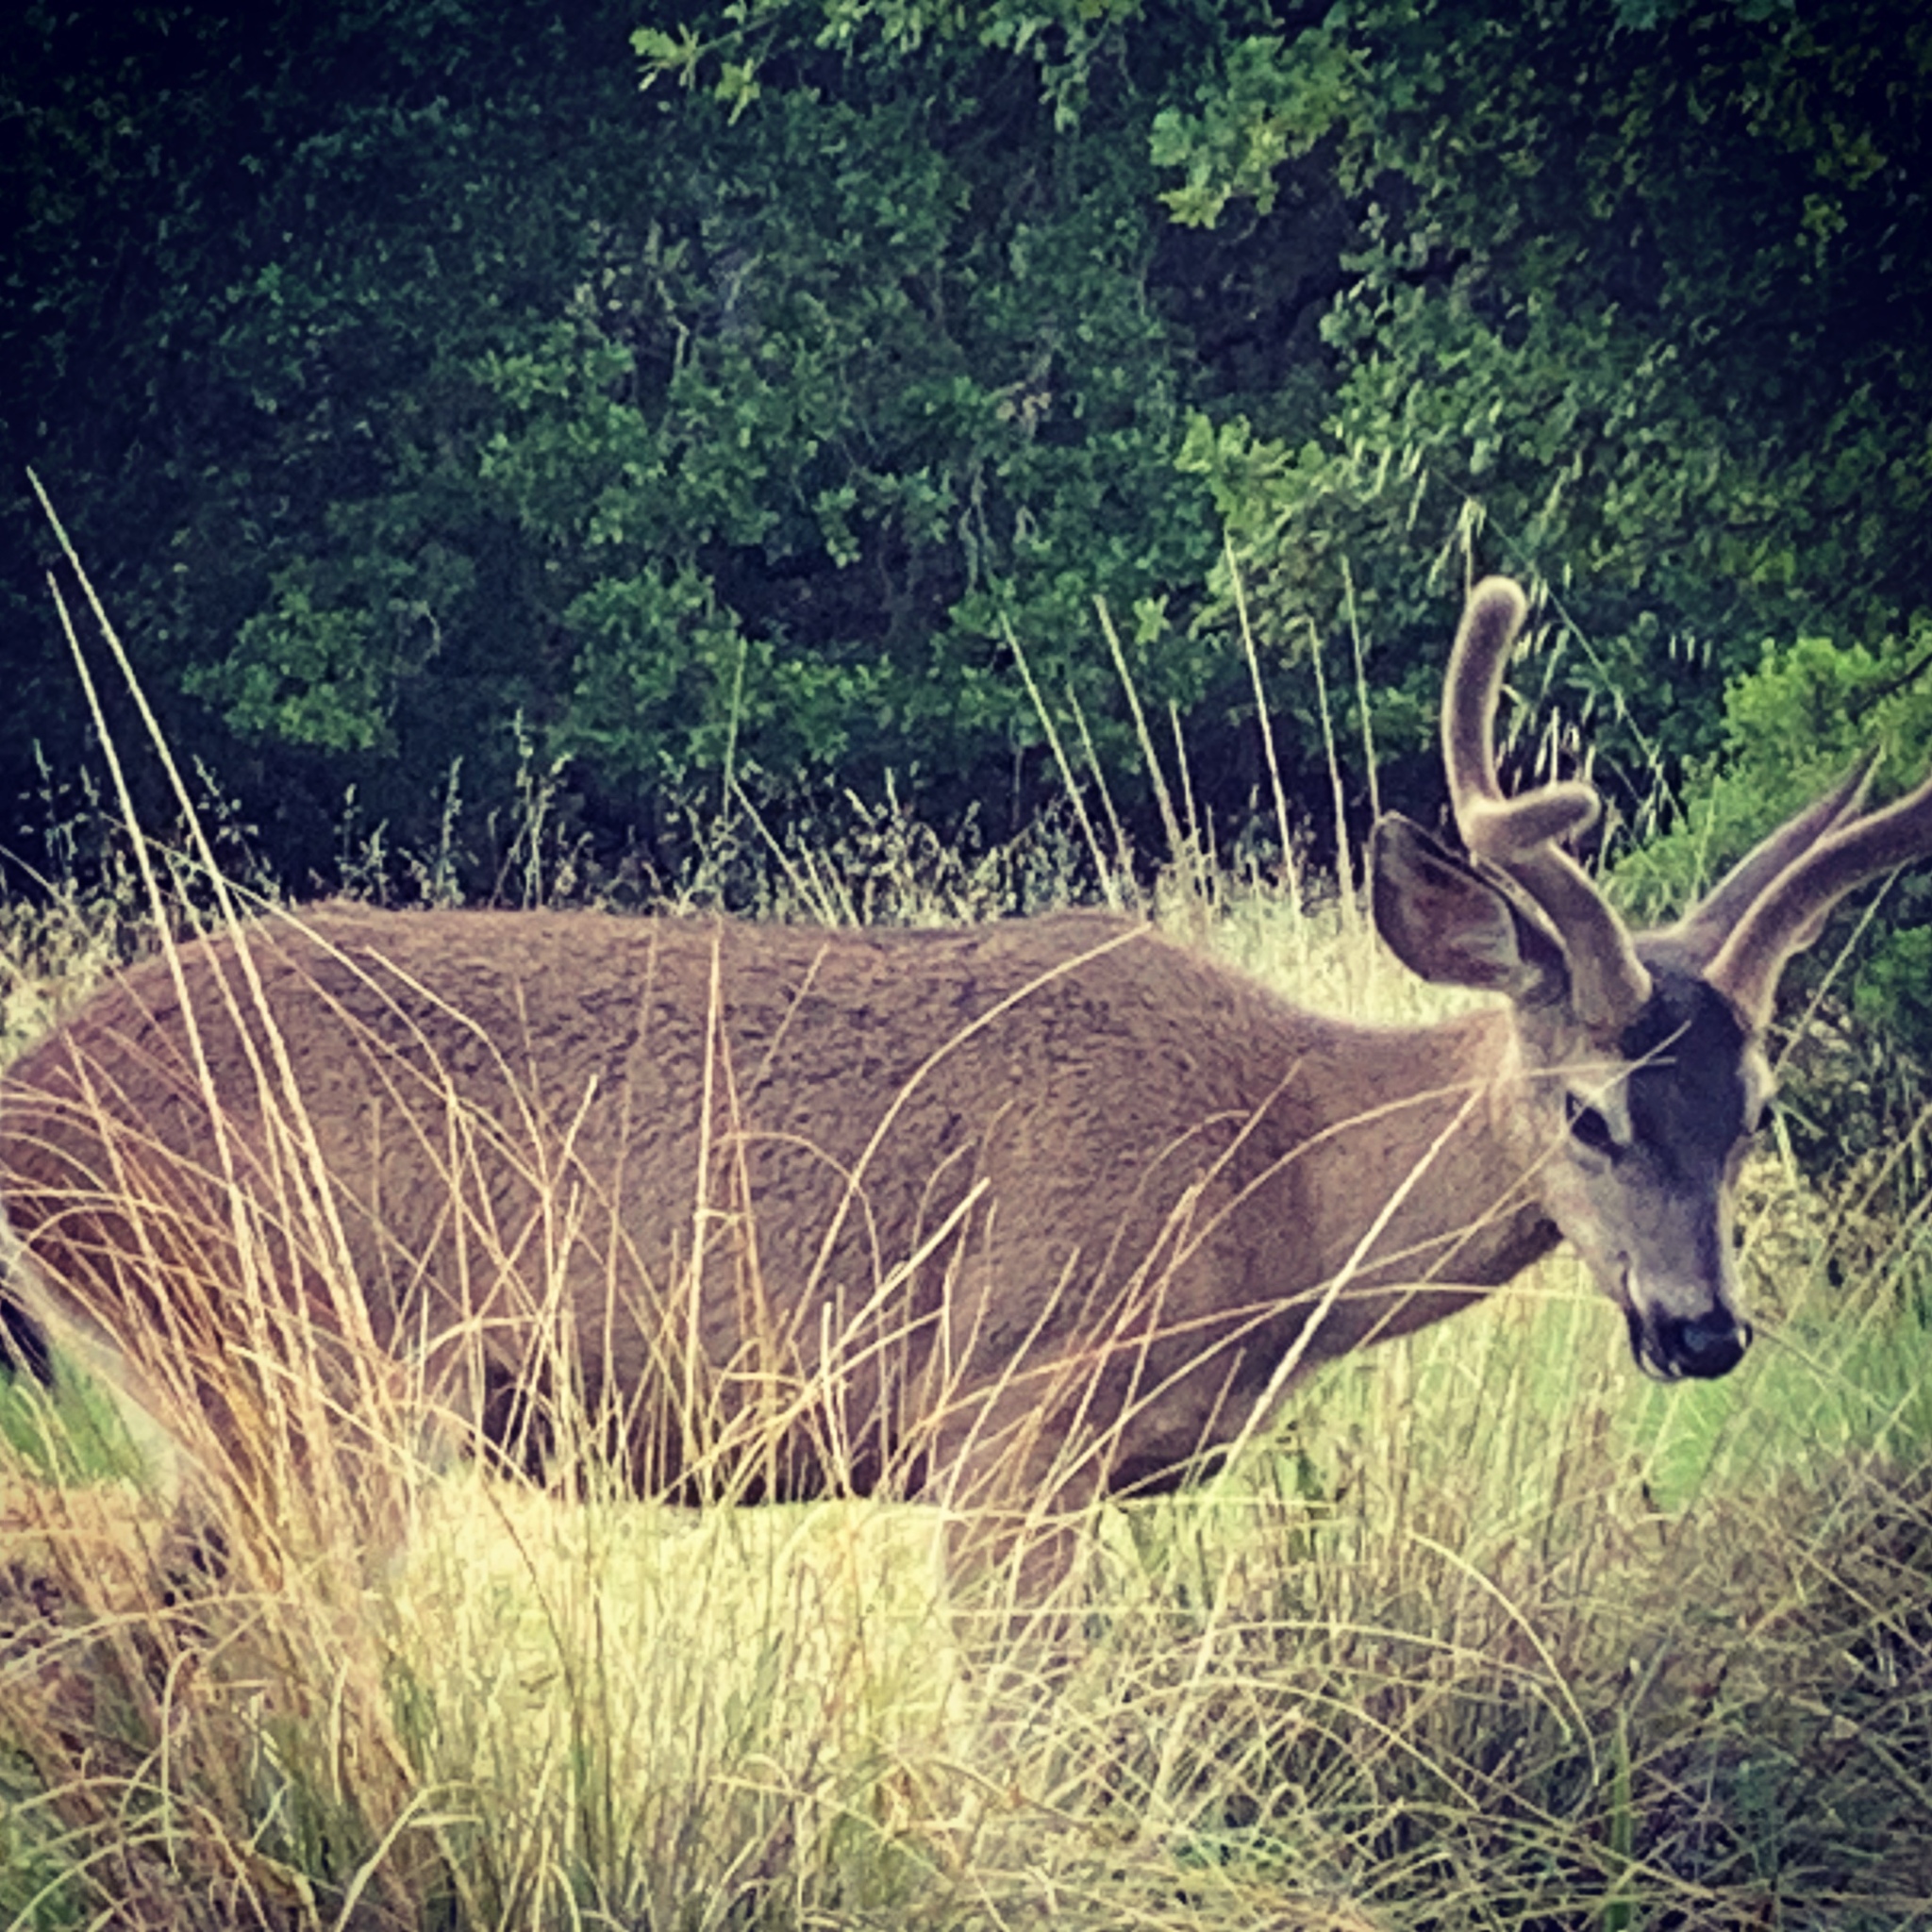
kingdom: Animalia
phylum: Chordata
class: Mammalia
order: Artiodactyla
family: Cervidae
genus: Odocoileus
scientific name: Odocoileus hemionus
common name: Mule deer
